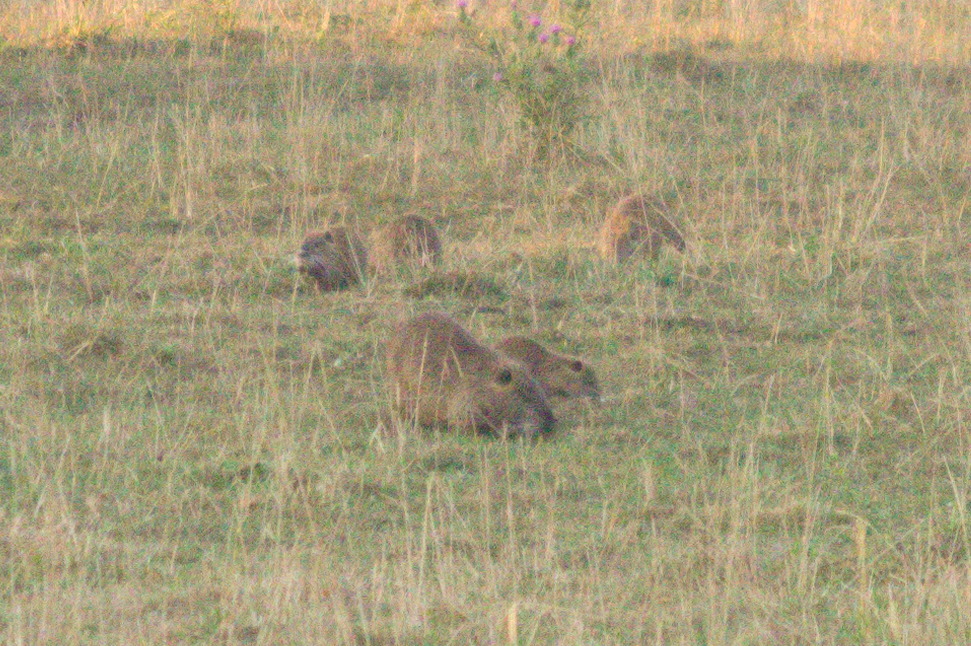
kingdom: Animalia
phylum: Chordata
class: Mammalia
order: Rodentia
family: Myocastoridae
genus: Myocastor
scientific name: Myocastor coypus
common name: Coypu
